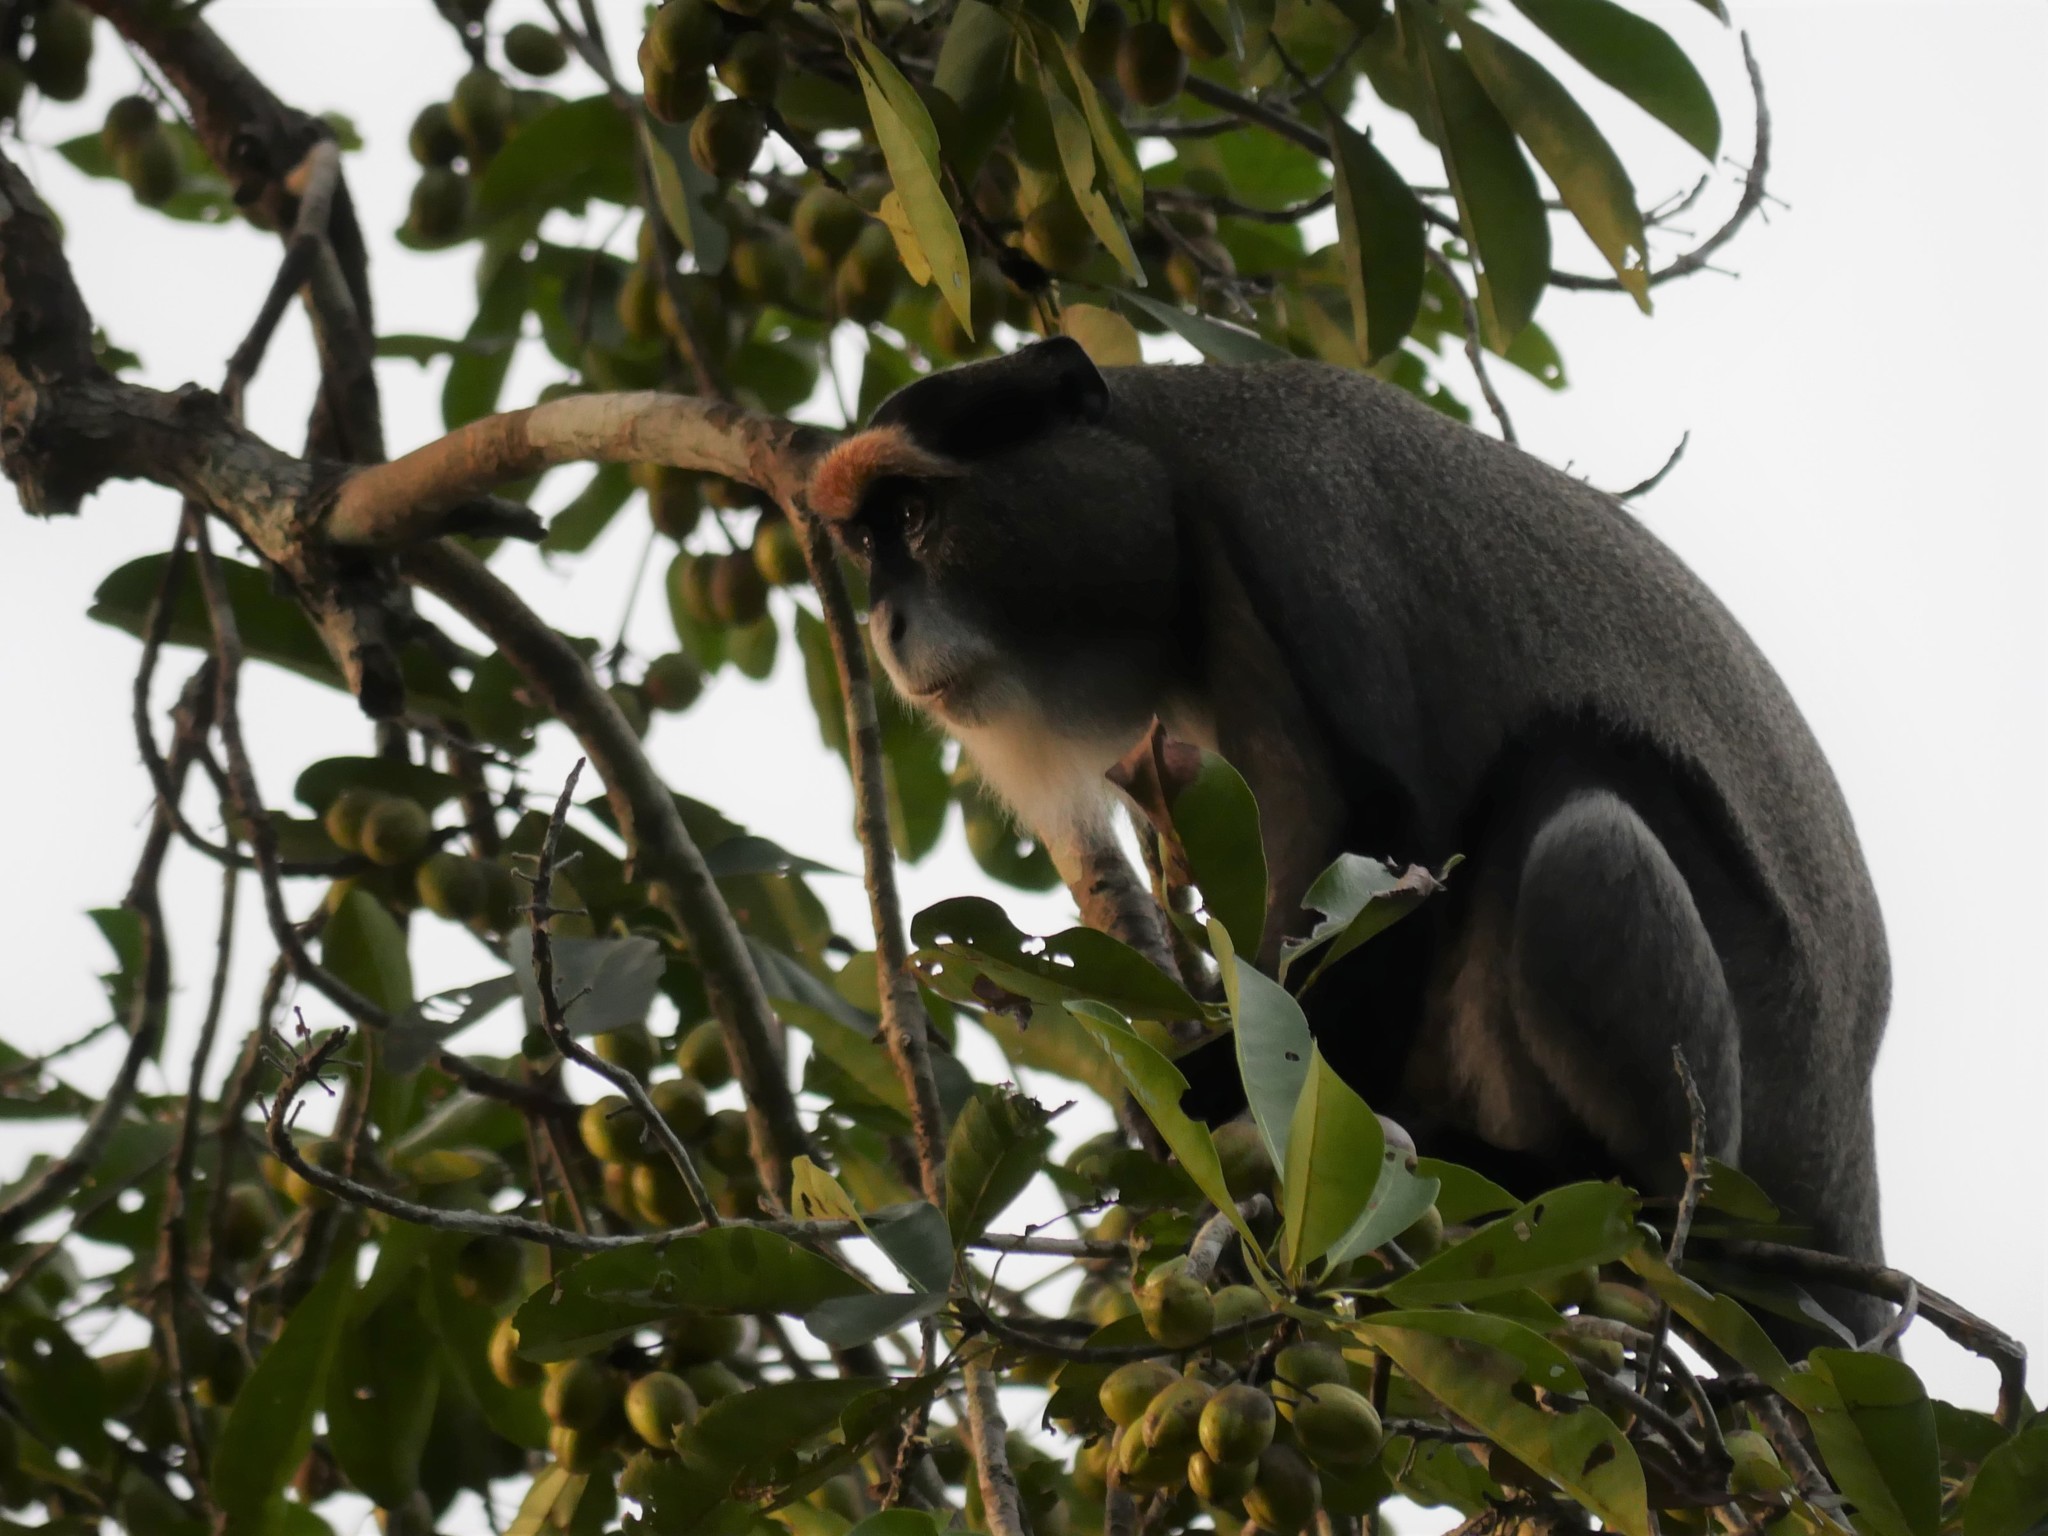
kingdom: Animalia
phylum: Chordata
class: Mammalia
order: Primates
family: Cercopithecidae
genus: Cercopithecus
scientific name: Cercopithecus neglectus
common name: De brazza's guenon
